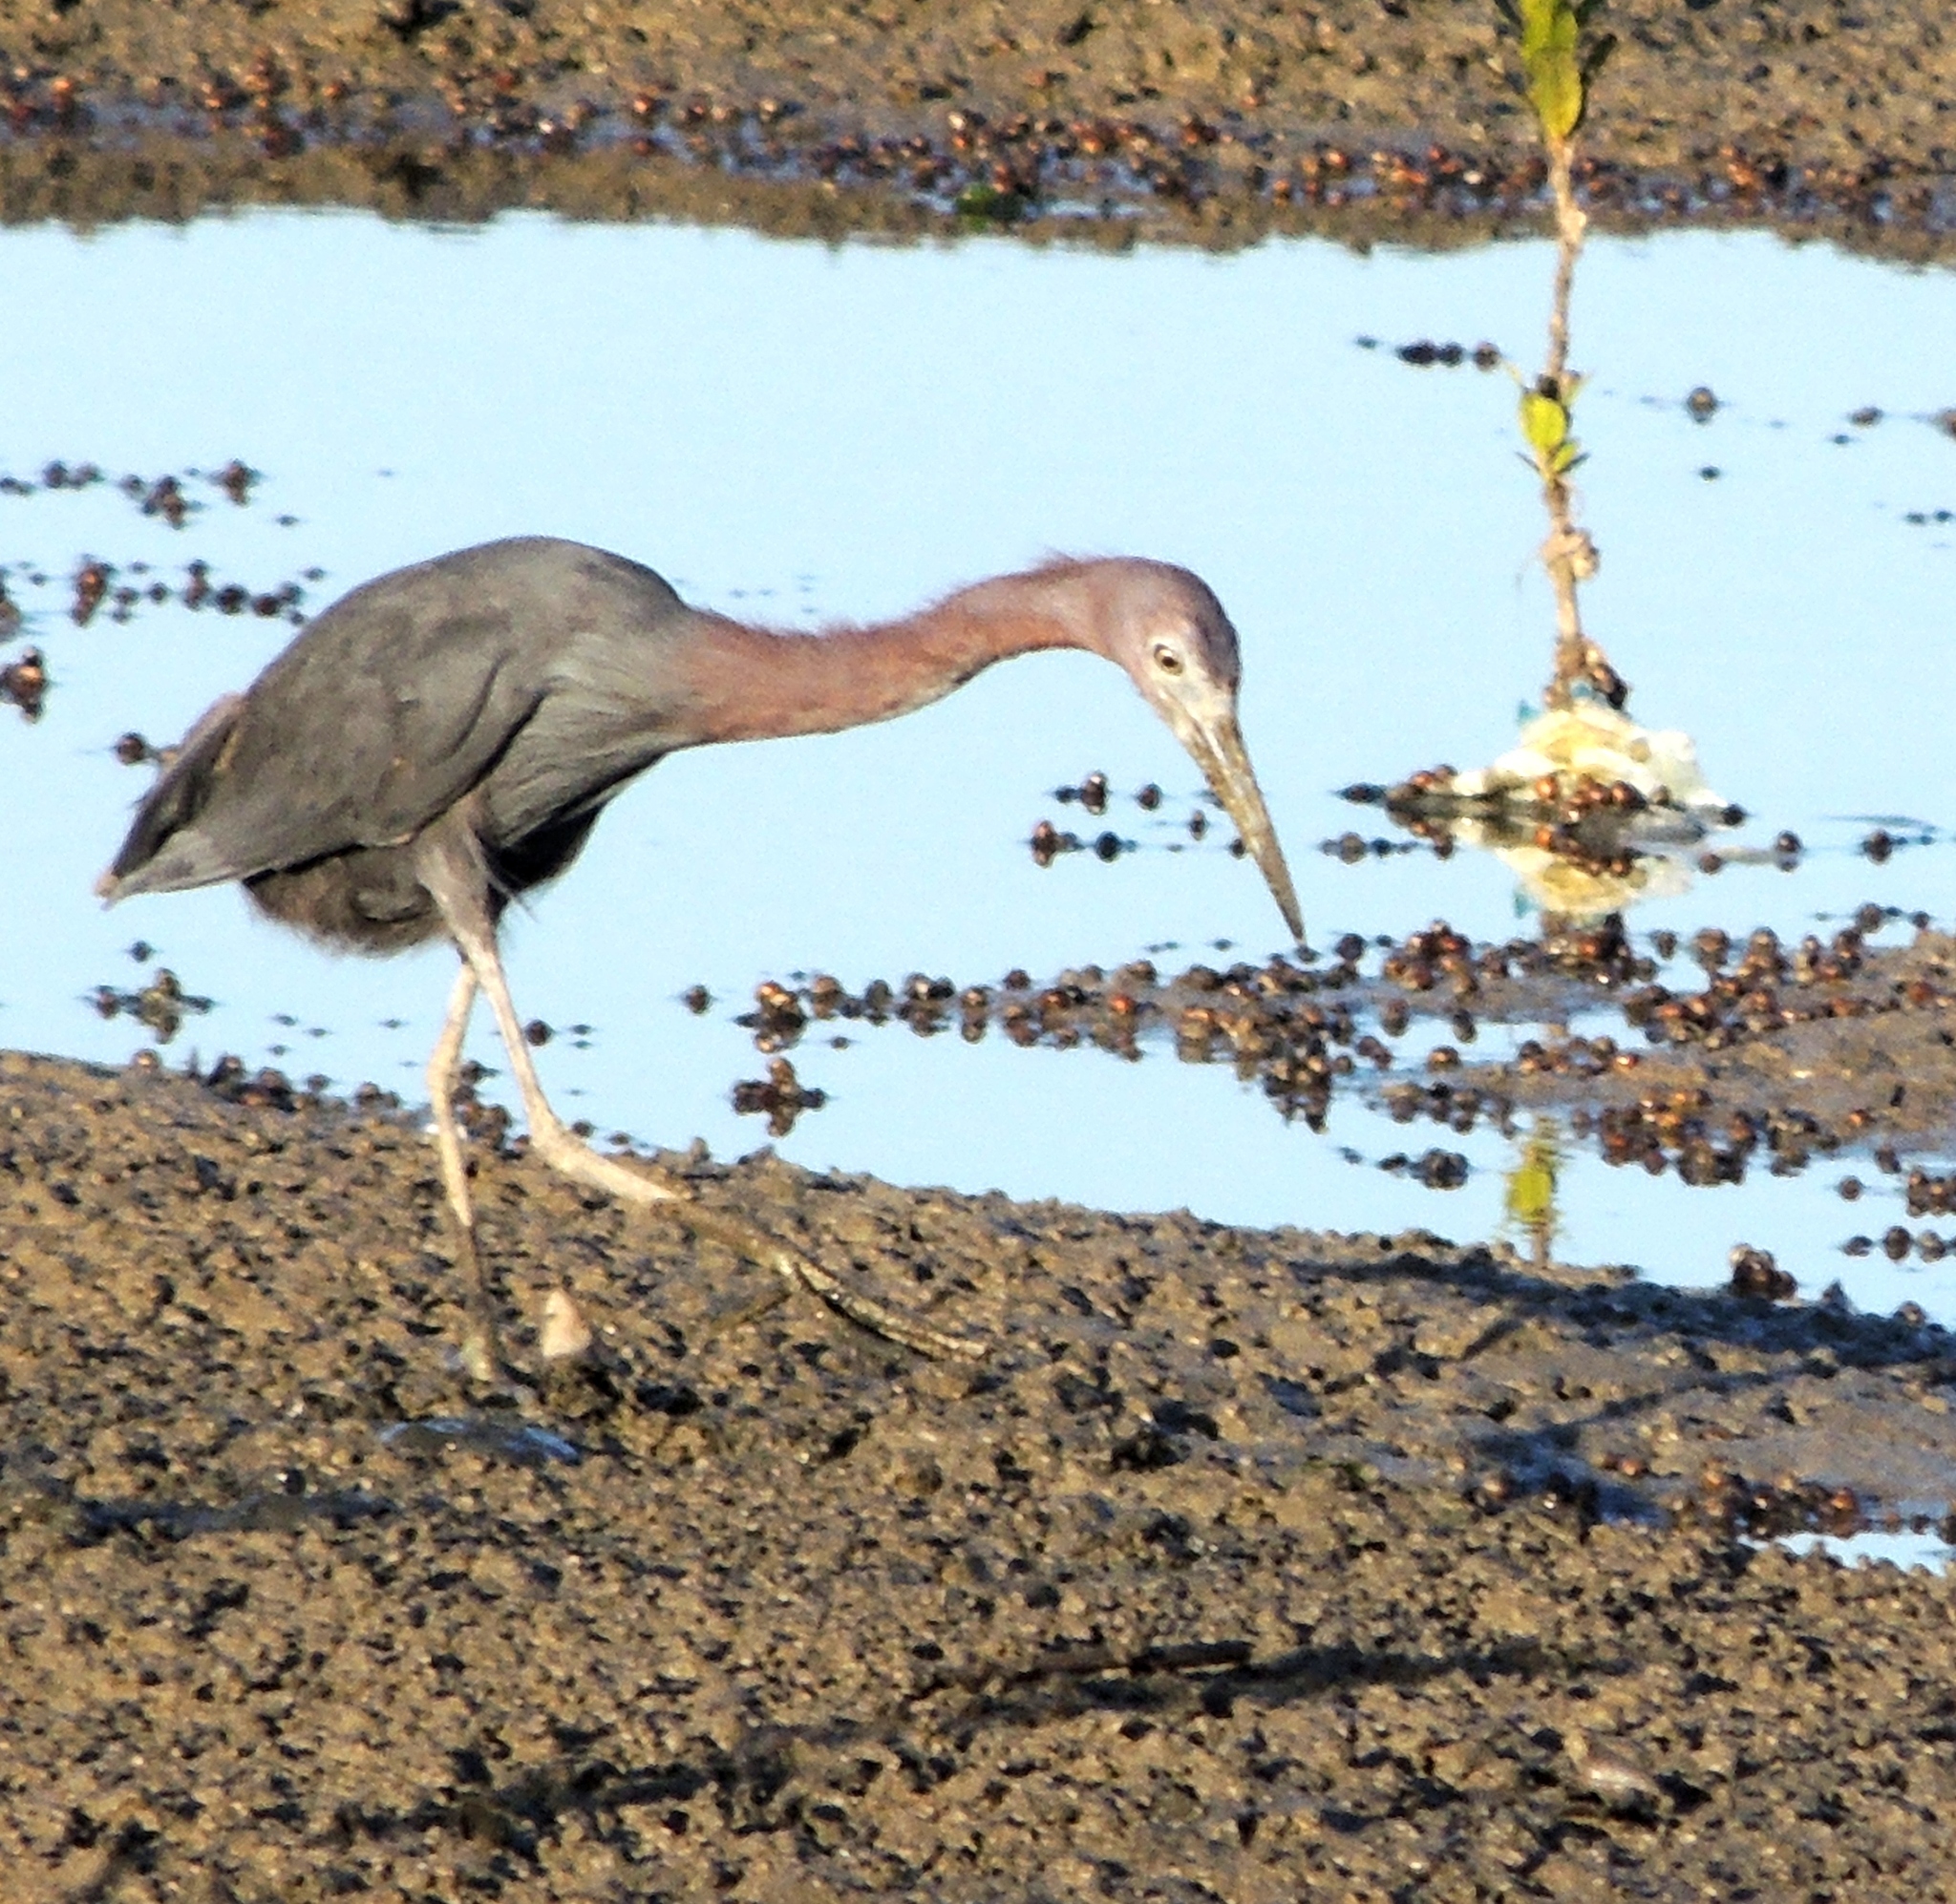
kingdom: Animalia
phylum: Chordata
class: Aves
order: Pelecaniformes
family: Ardeidae
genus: Egretta
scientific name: Egretta caerulea
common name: Little blue heron
